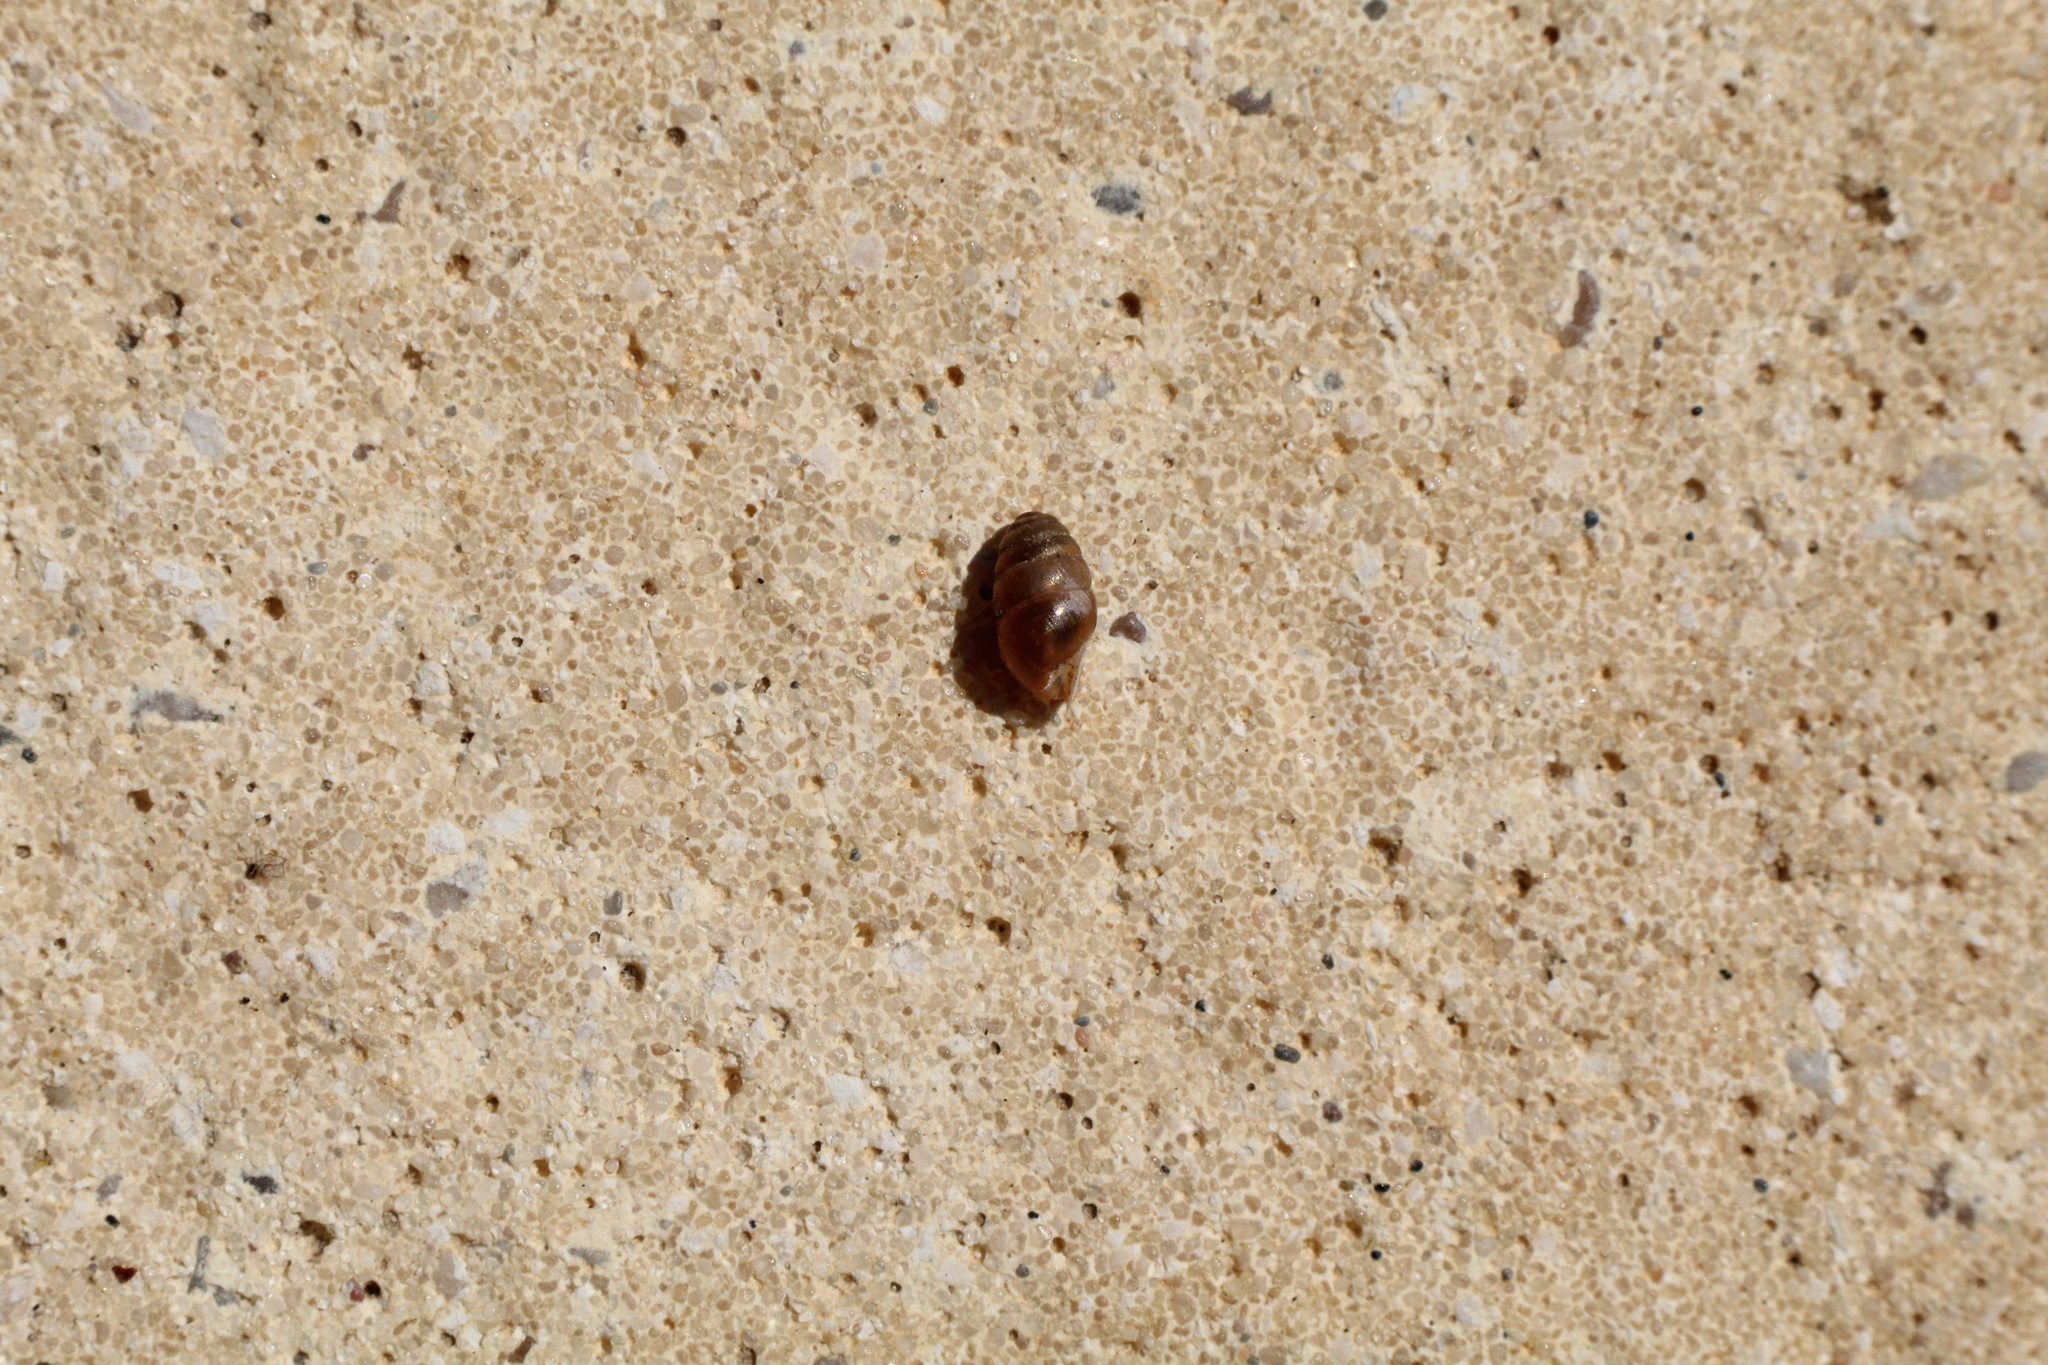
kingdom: Animalia
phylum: Mollusca
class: Gastropoda
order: Stylommatophora
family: Lauriidae
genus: Lauria
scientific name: Lauria cylindracea
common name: Common chrysalis snail
